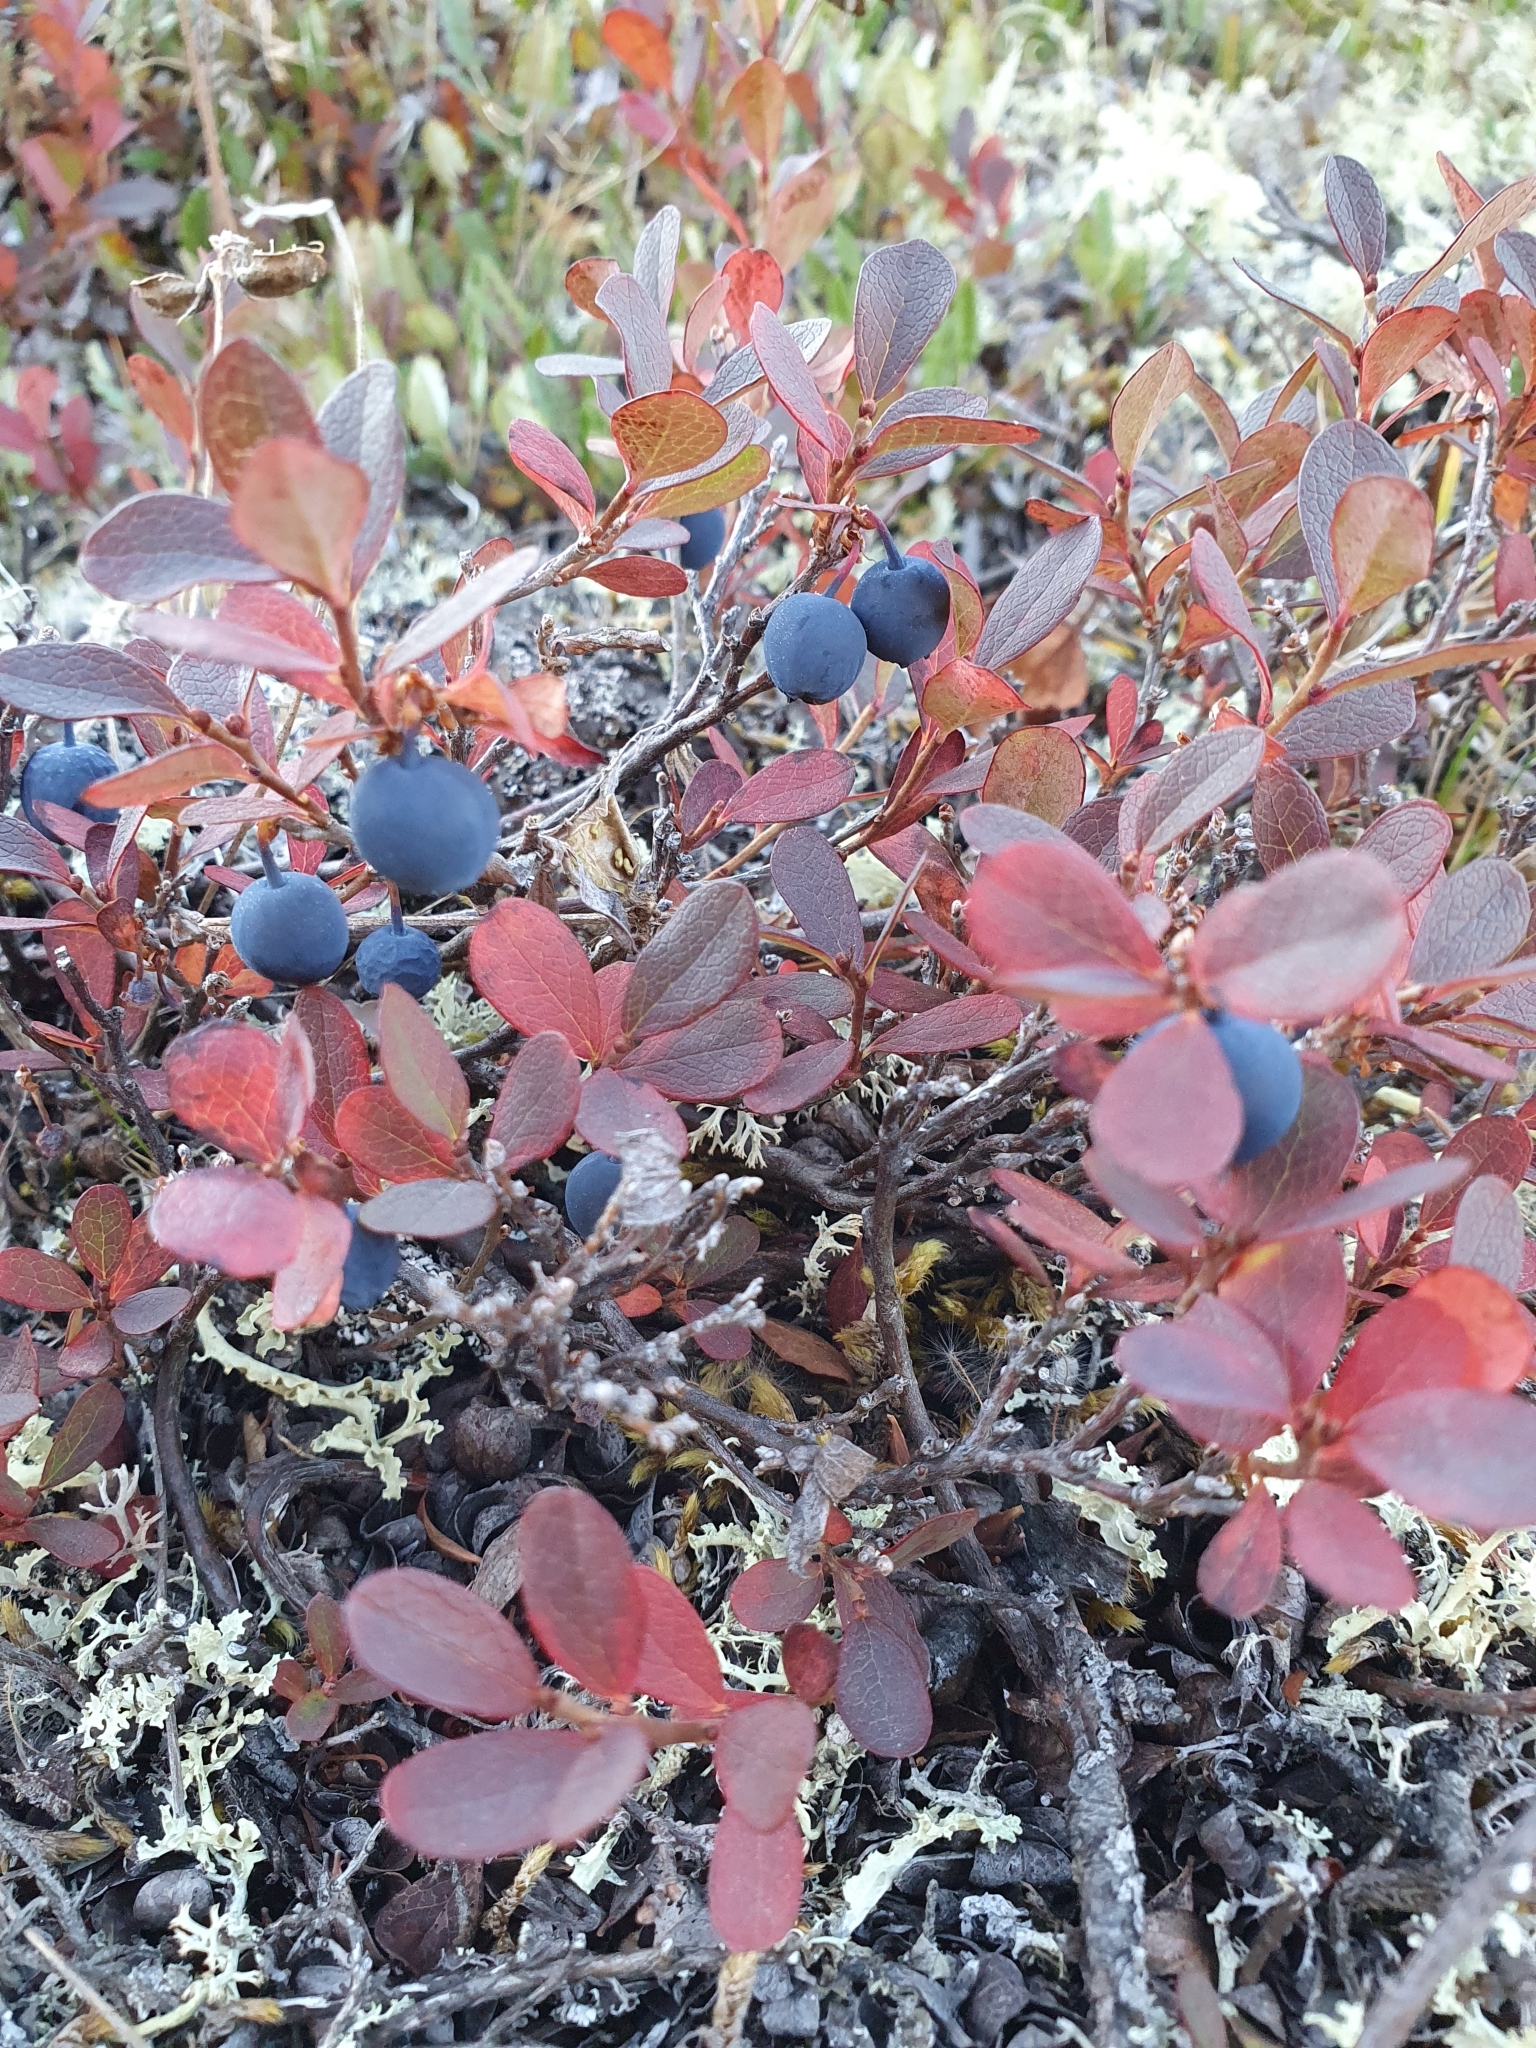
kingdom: Plantae
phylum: Tracheophyta
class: Magnoliopsida
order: Ericales
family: Ericaceae
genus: Vaccinium
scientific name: Vaccinium uliginosum
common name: Bog bilberry
